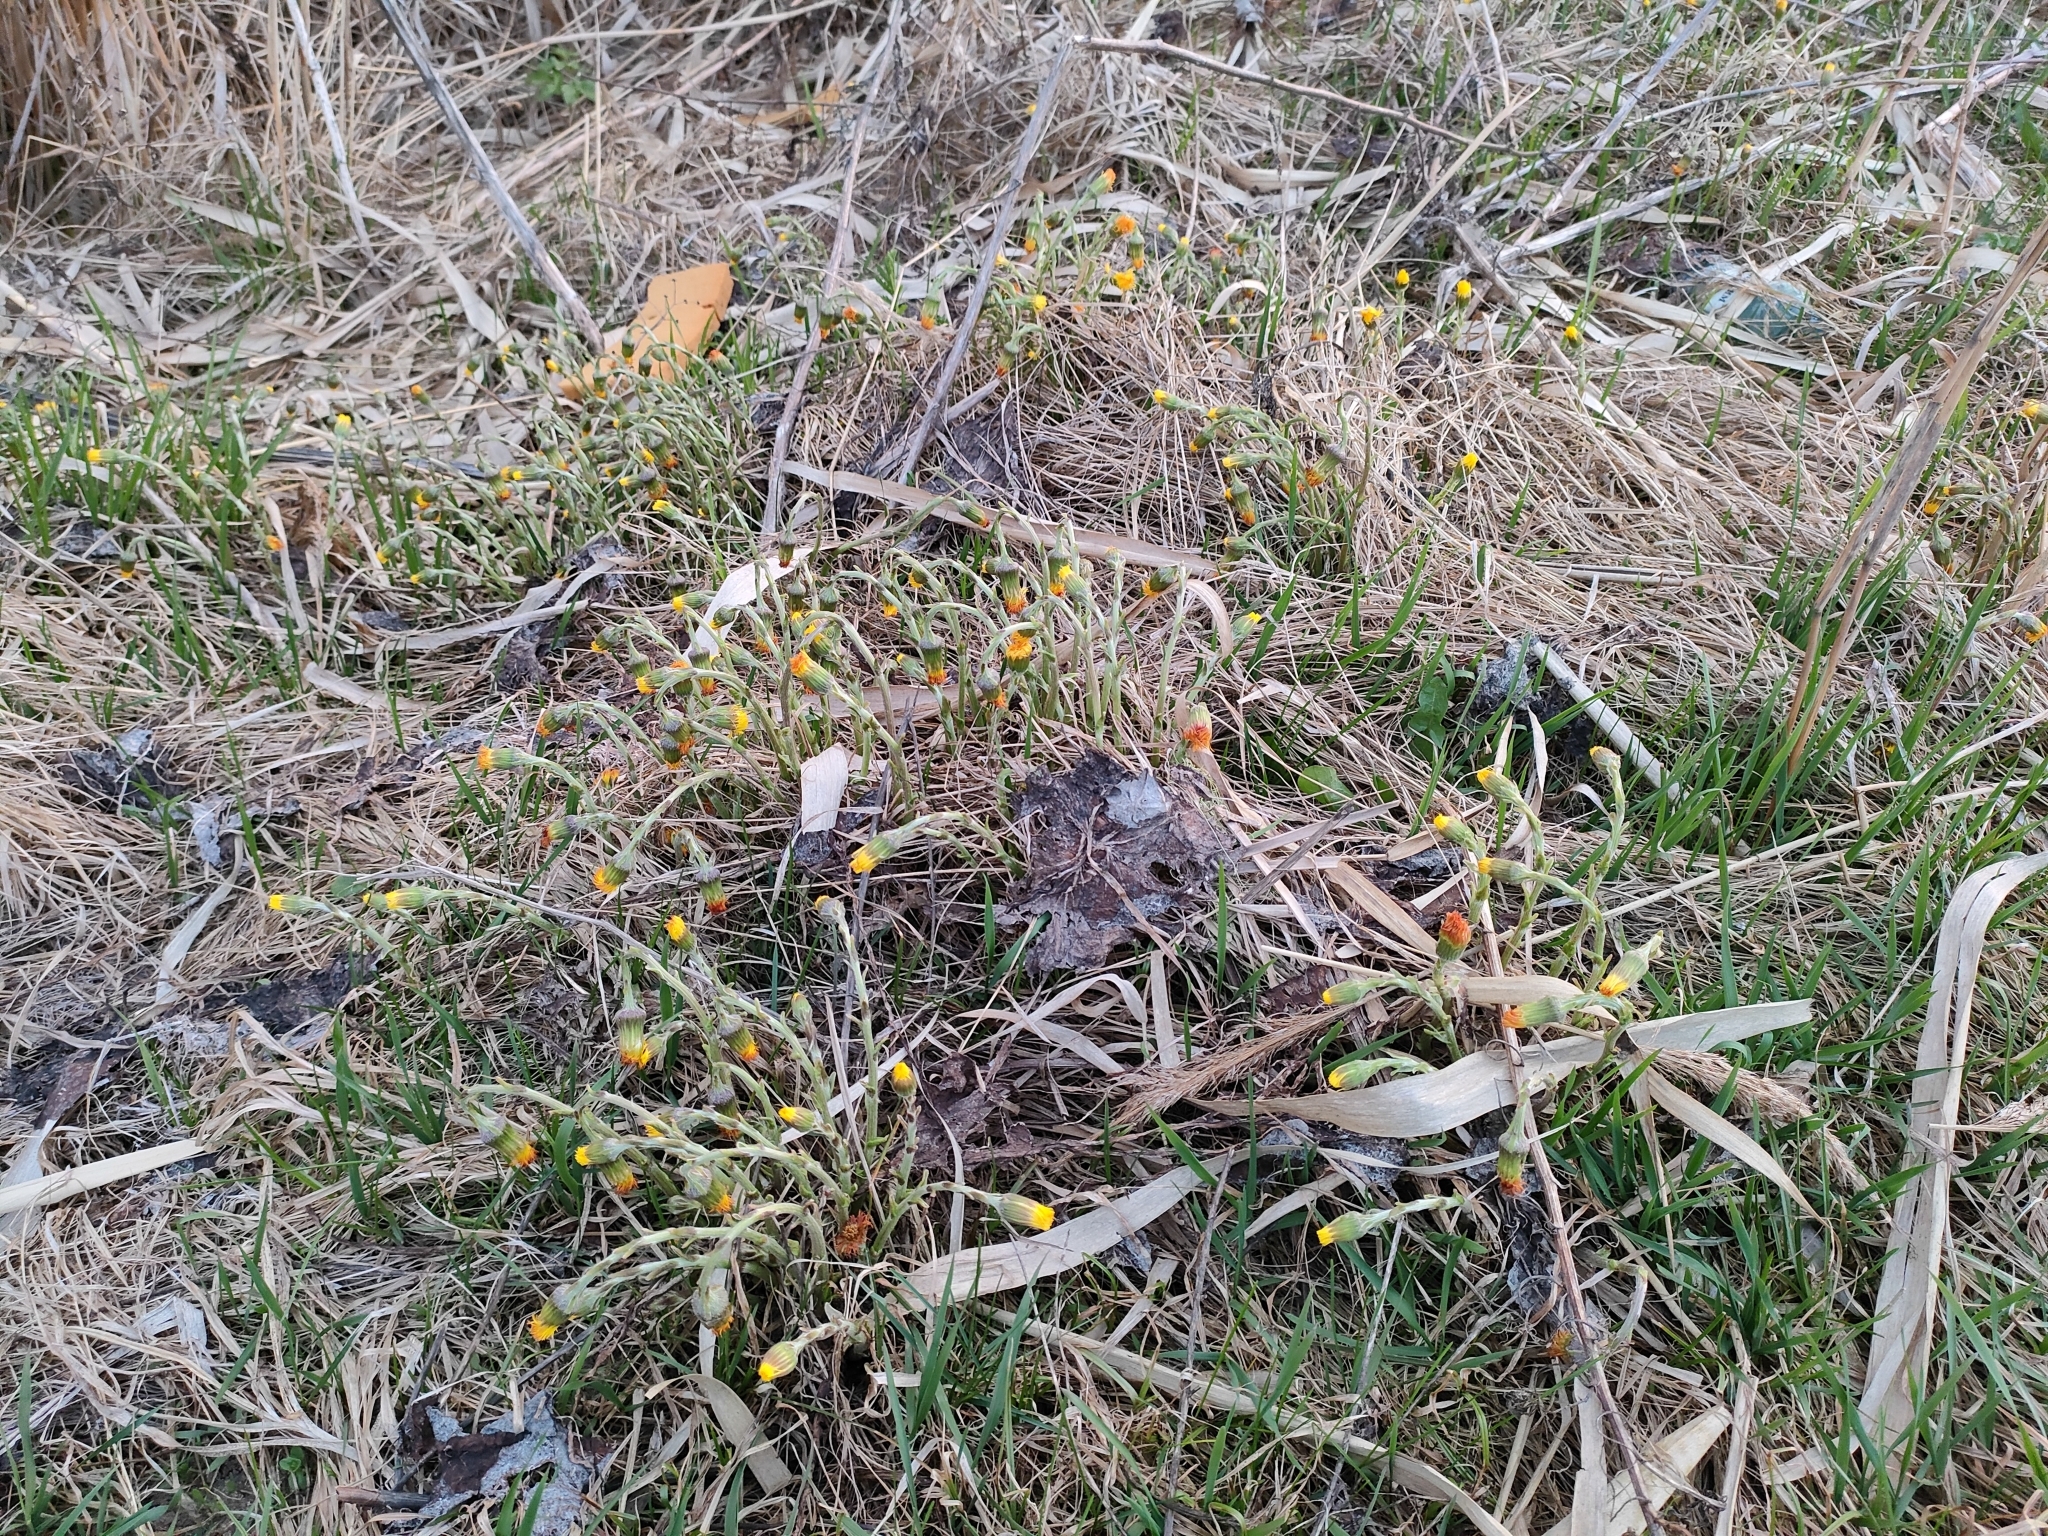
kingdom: Plantae
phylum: Tracheophyta
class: Magnoliopsida
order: Asterales
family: Asteraceae
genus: Tussilago
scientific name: Tussilago farfara
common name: Coltsfoot
